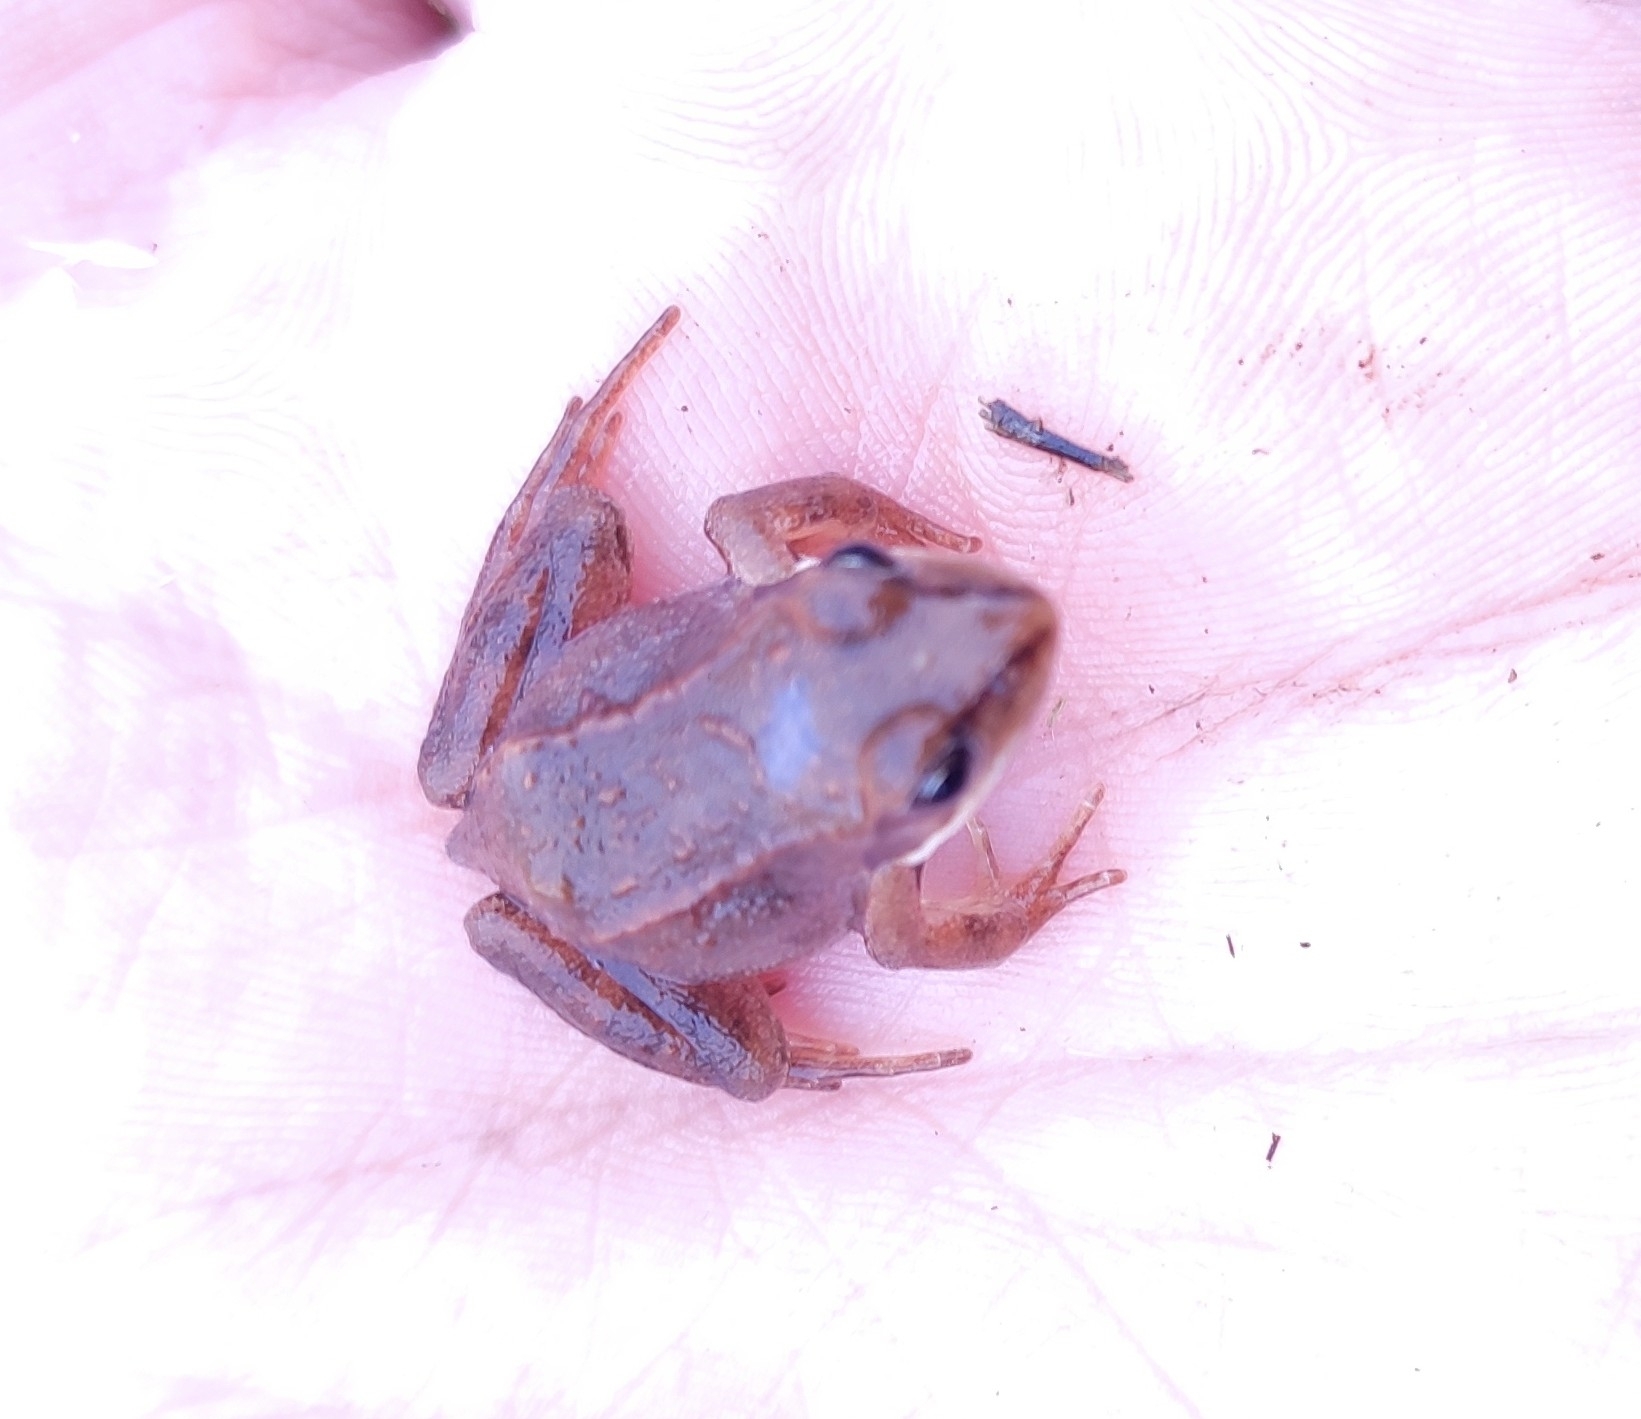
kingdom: Animalia
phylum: Chordata
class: Amphibia
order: Anura
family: Ranidae
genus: Rana
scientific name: Rana arvalis
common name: Moor frog
